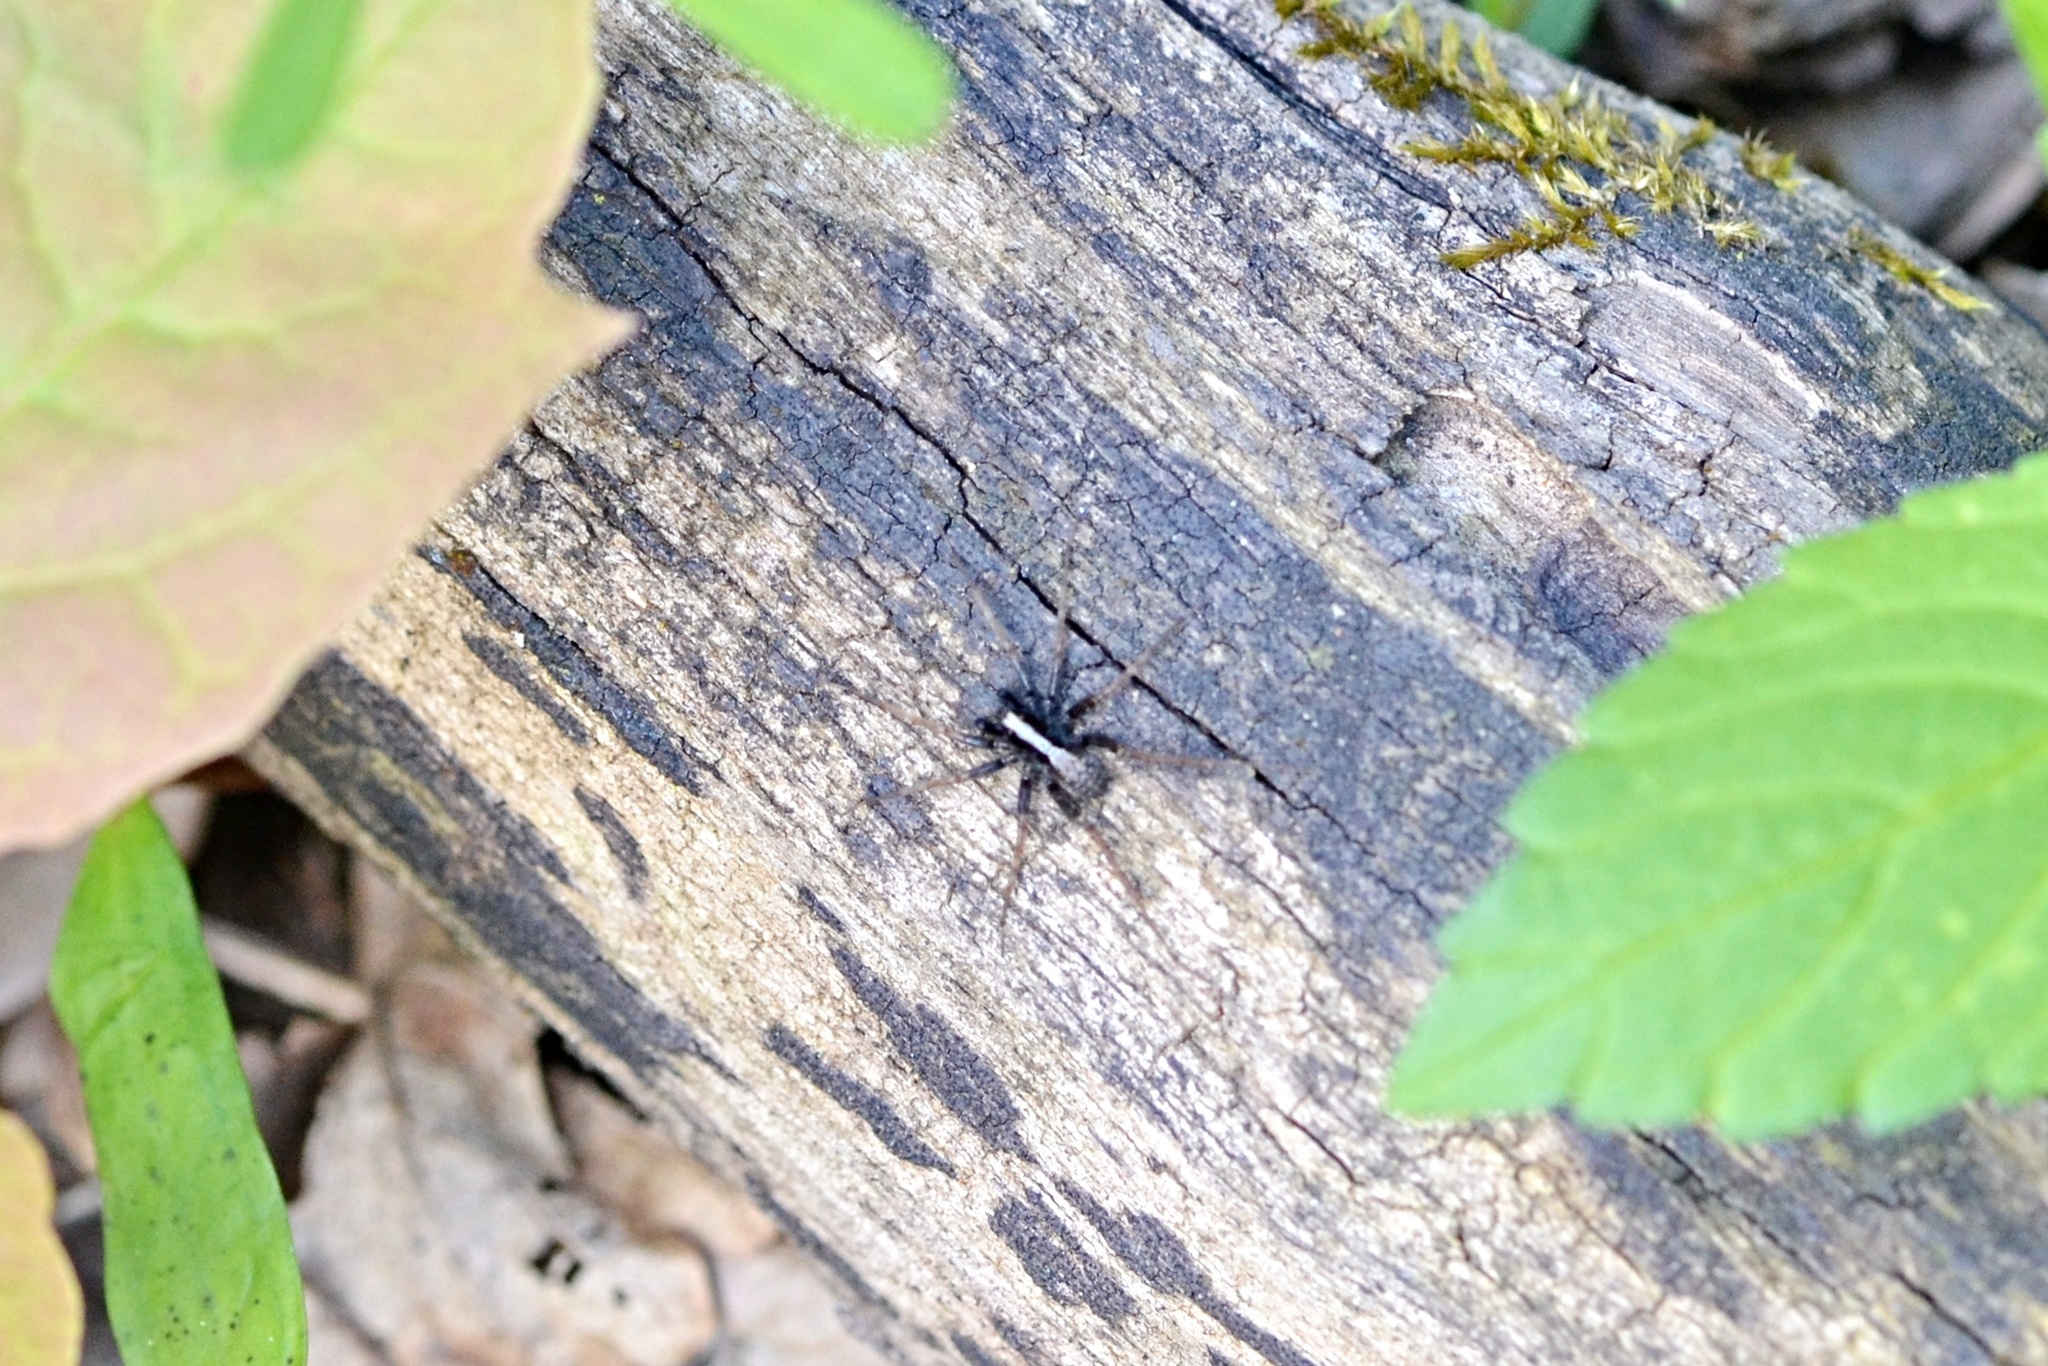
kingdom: Animalia
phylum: Arthropoda
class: Arachnida
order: Araneae
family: Lycosidae
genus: Pardosa
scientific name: Pardosa
